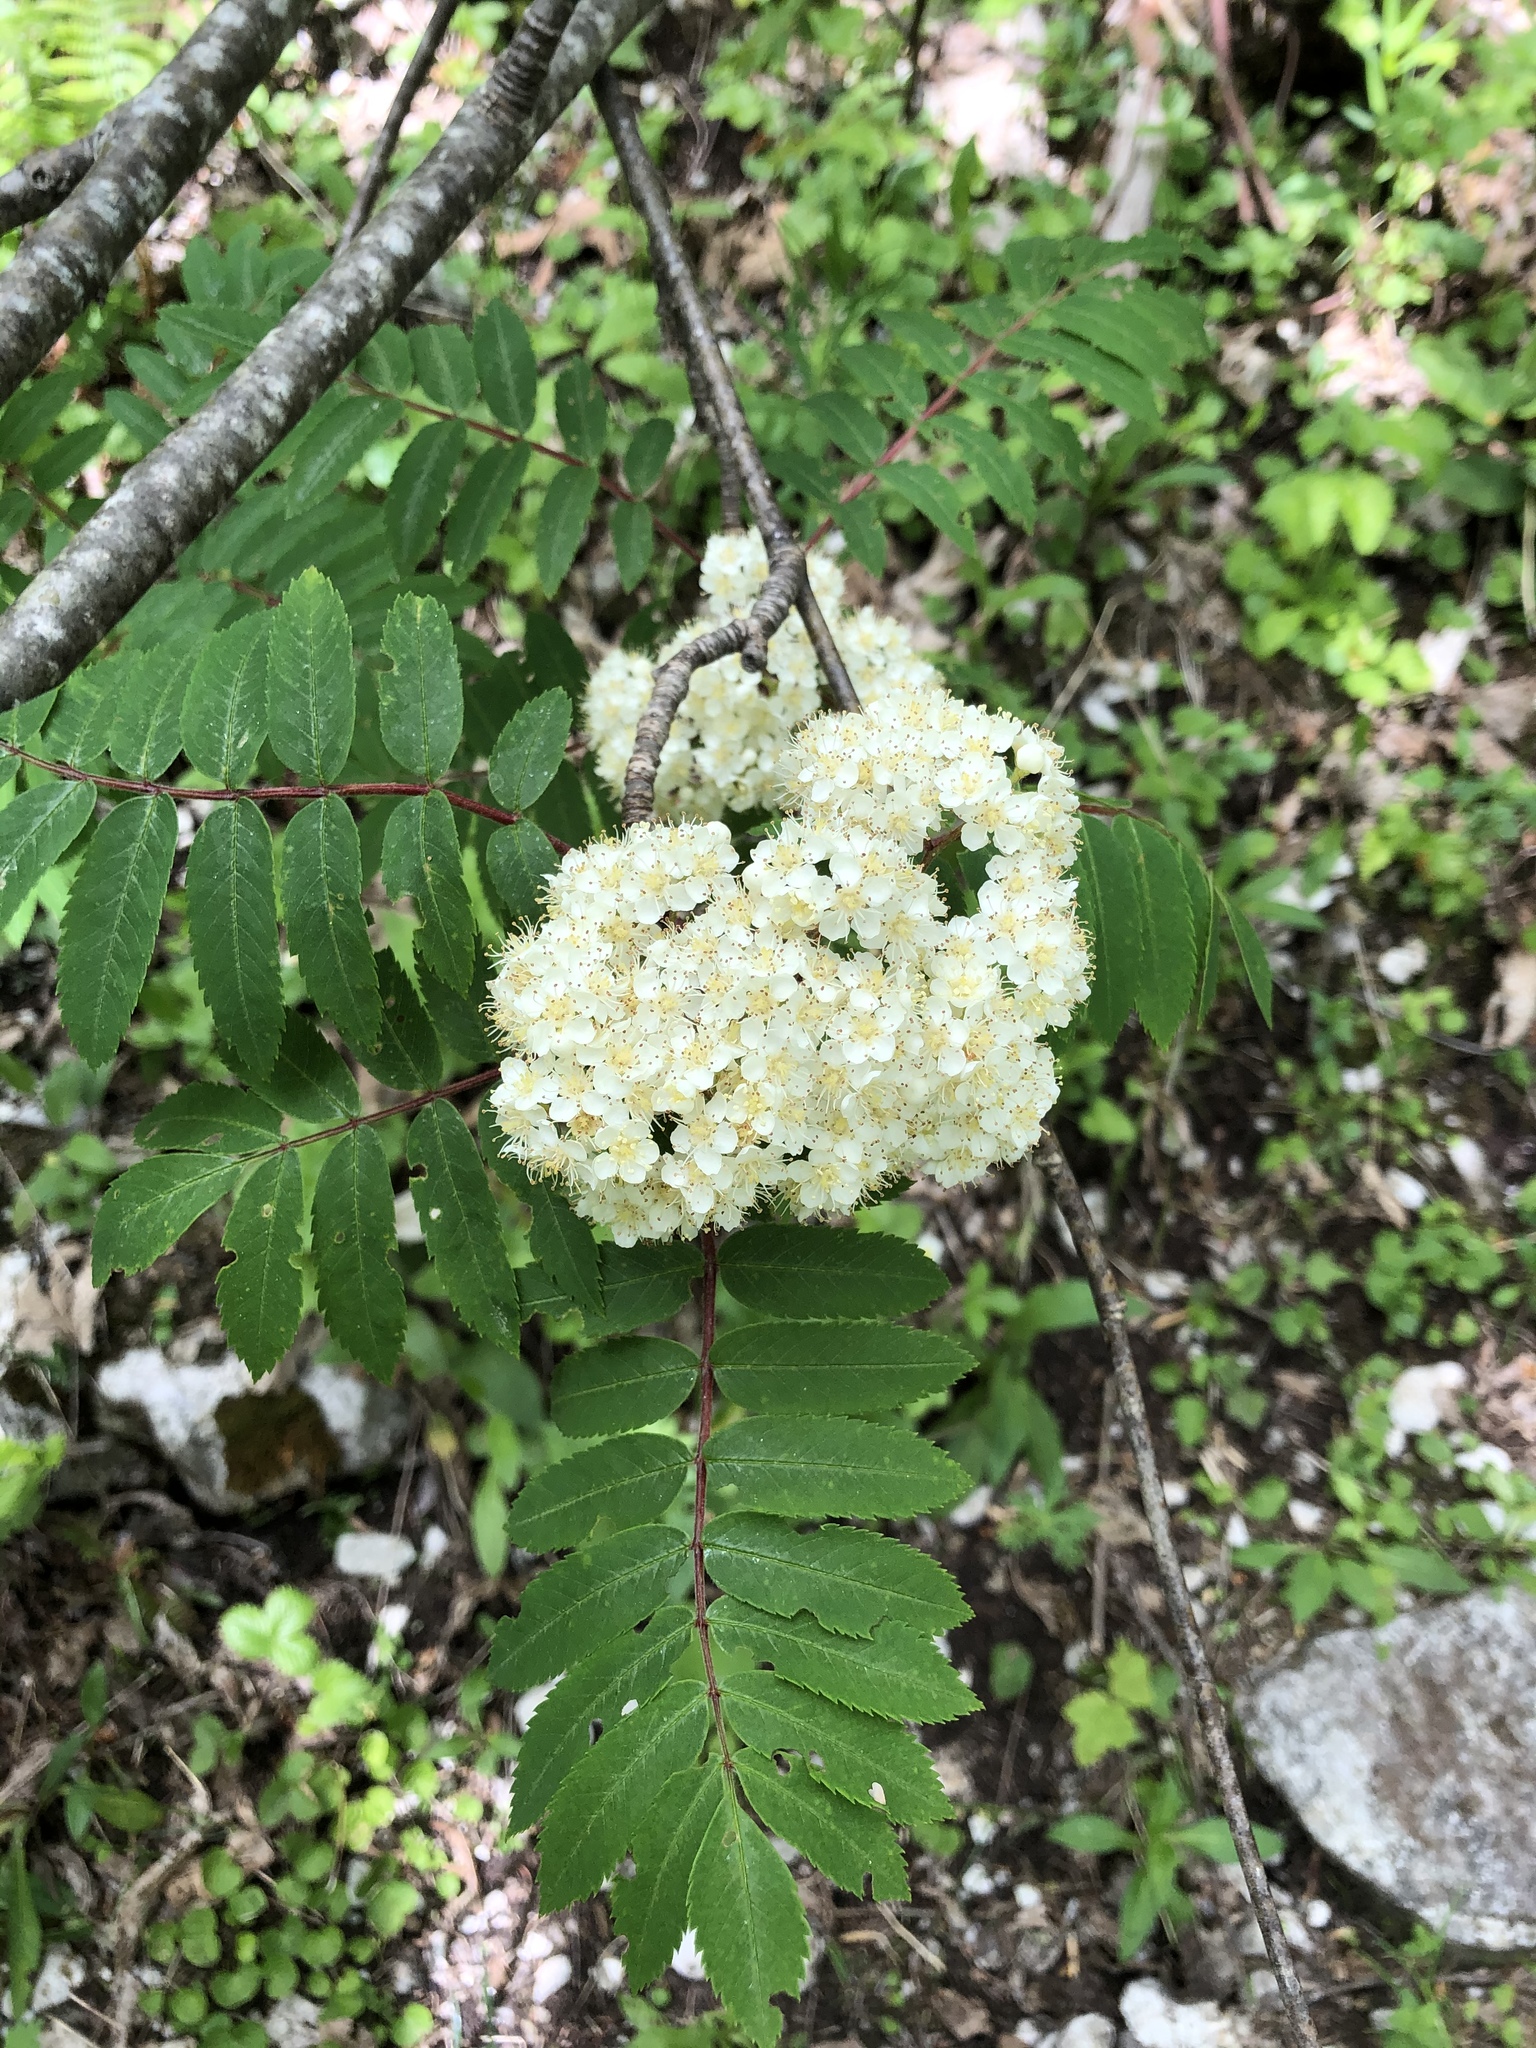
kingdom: Plantae
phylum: Tracheophyta
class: Magnoliopsida
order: Rosales
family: Rosaceae
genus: Sorbus
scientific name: Sorbus aucuparia
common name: Rowan
